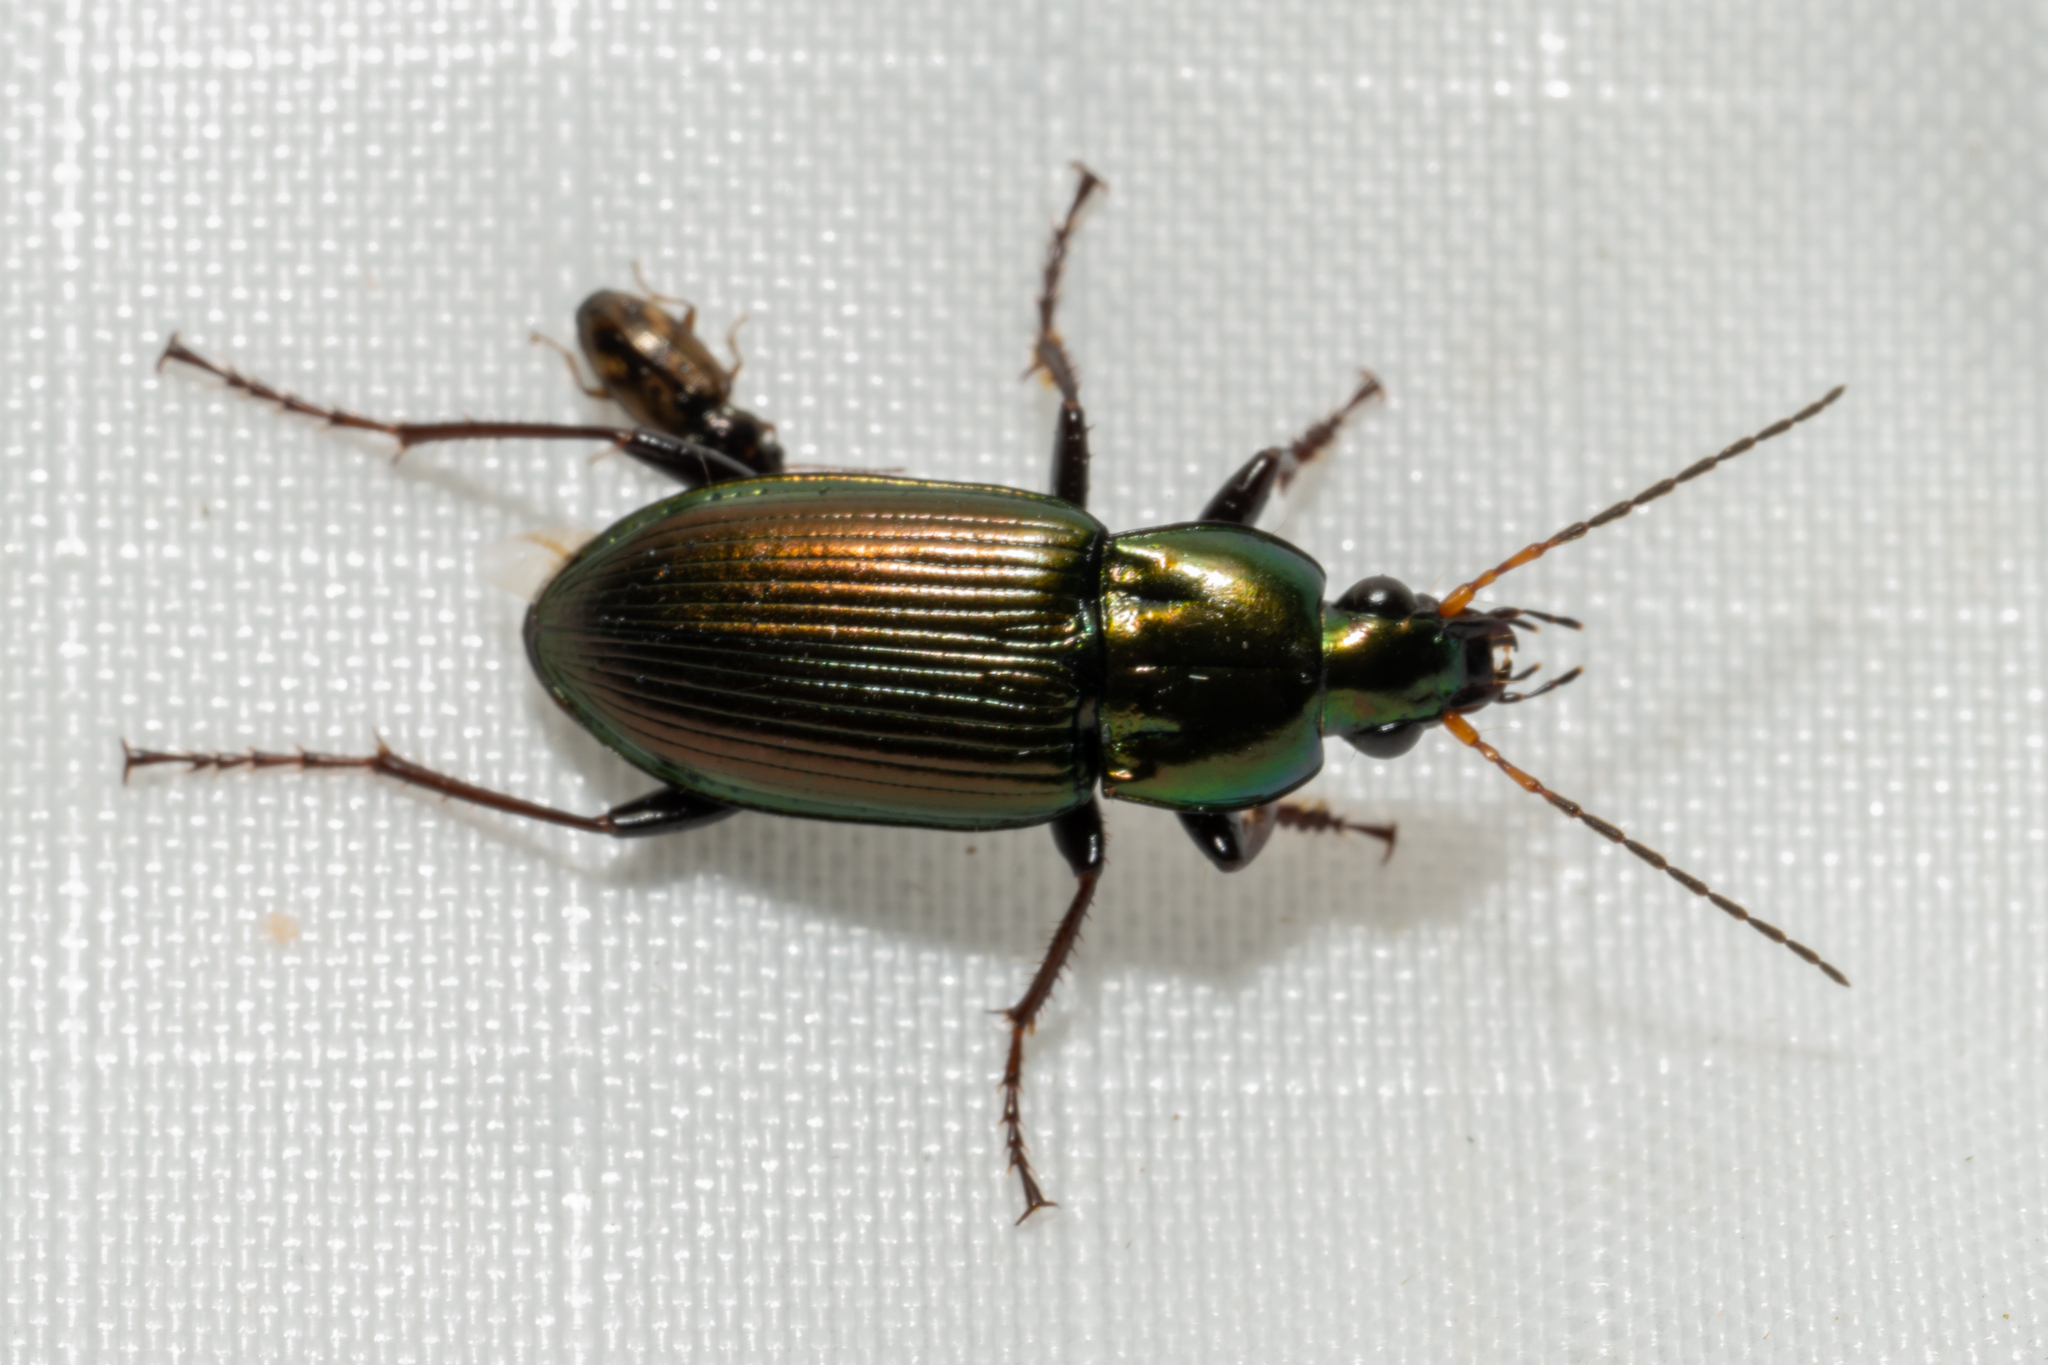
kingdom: Animalia
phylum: Arthropoda
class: Insecta
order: Coleoptera
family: Carabidae
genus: Poecilus
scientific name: Poecilus chalcites
